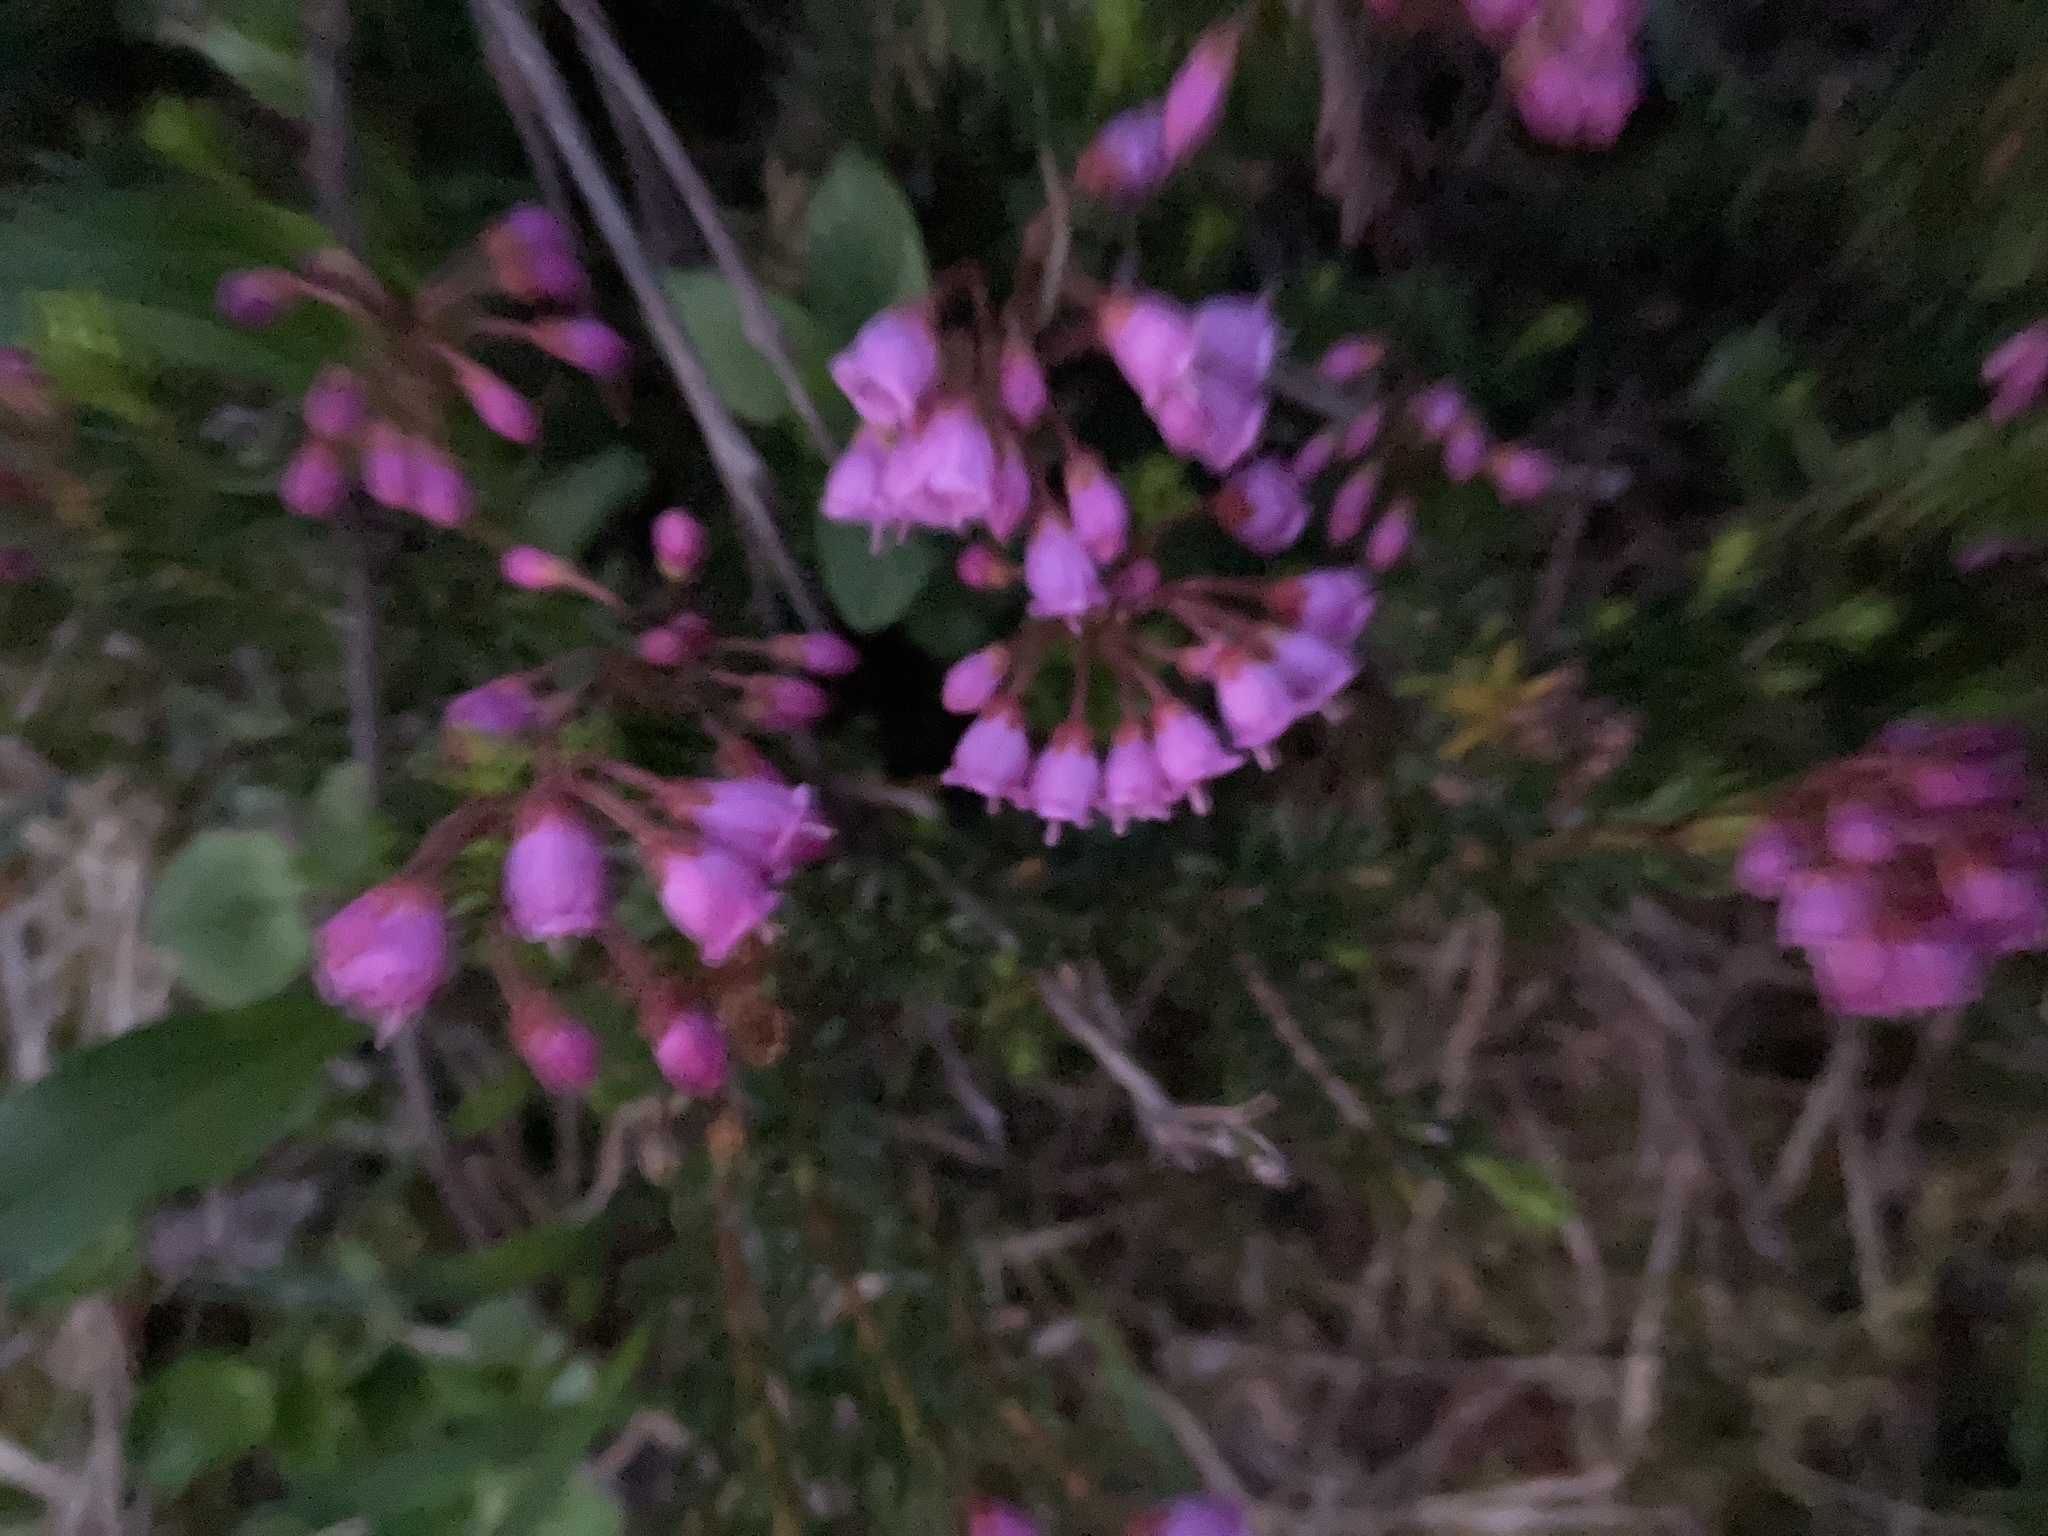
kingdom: Plantae
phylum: Tracheophyta
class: Magnoliopsida
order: Ericales
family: Ericaceae
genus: Phyllodoce
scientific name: Phyllodoce empetriformis
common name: Pink mountain heather
